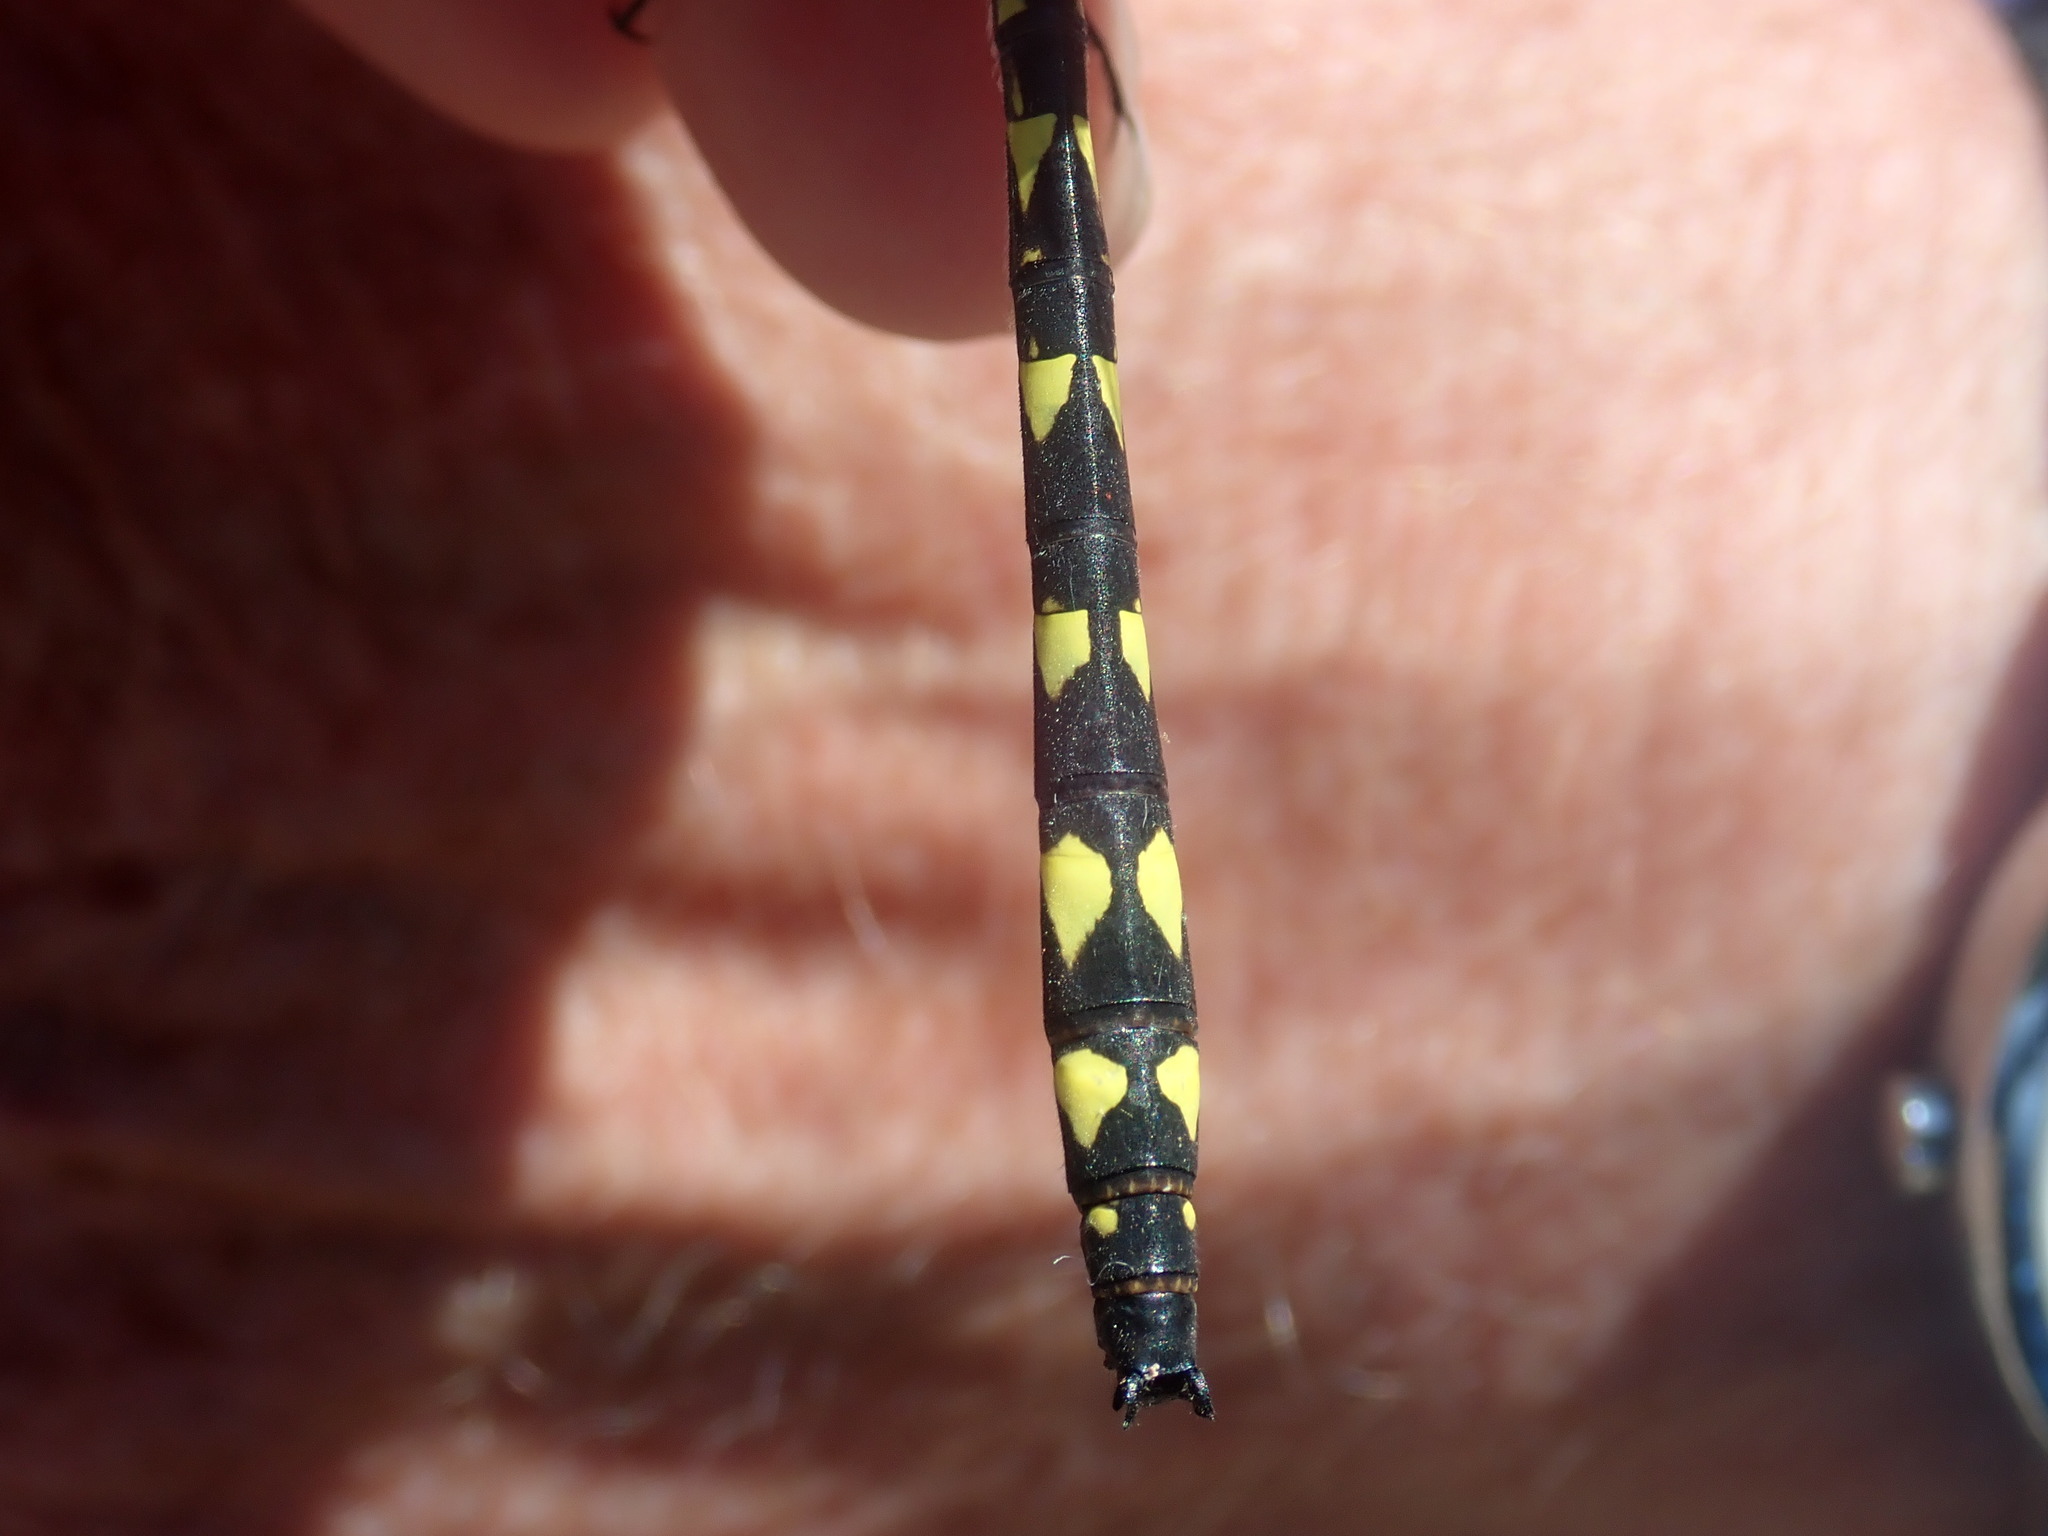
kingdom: Animalia
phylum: Arthropoda
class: Insecta
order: Odonata
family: Cordulegastridae
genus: Cordulegaster
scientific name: Cordulegaster diastatops
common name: Delta-spotted spiketail
